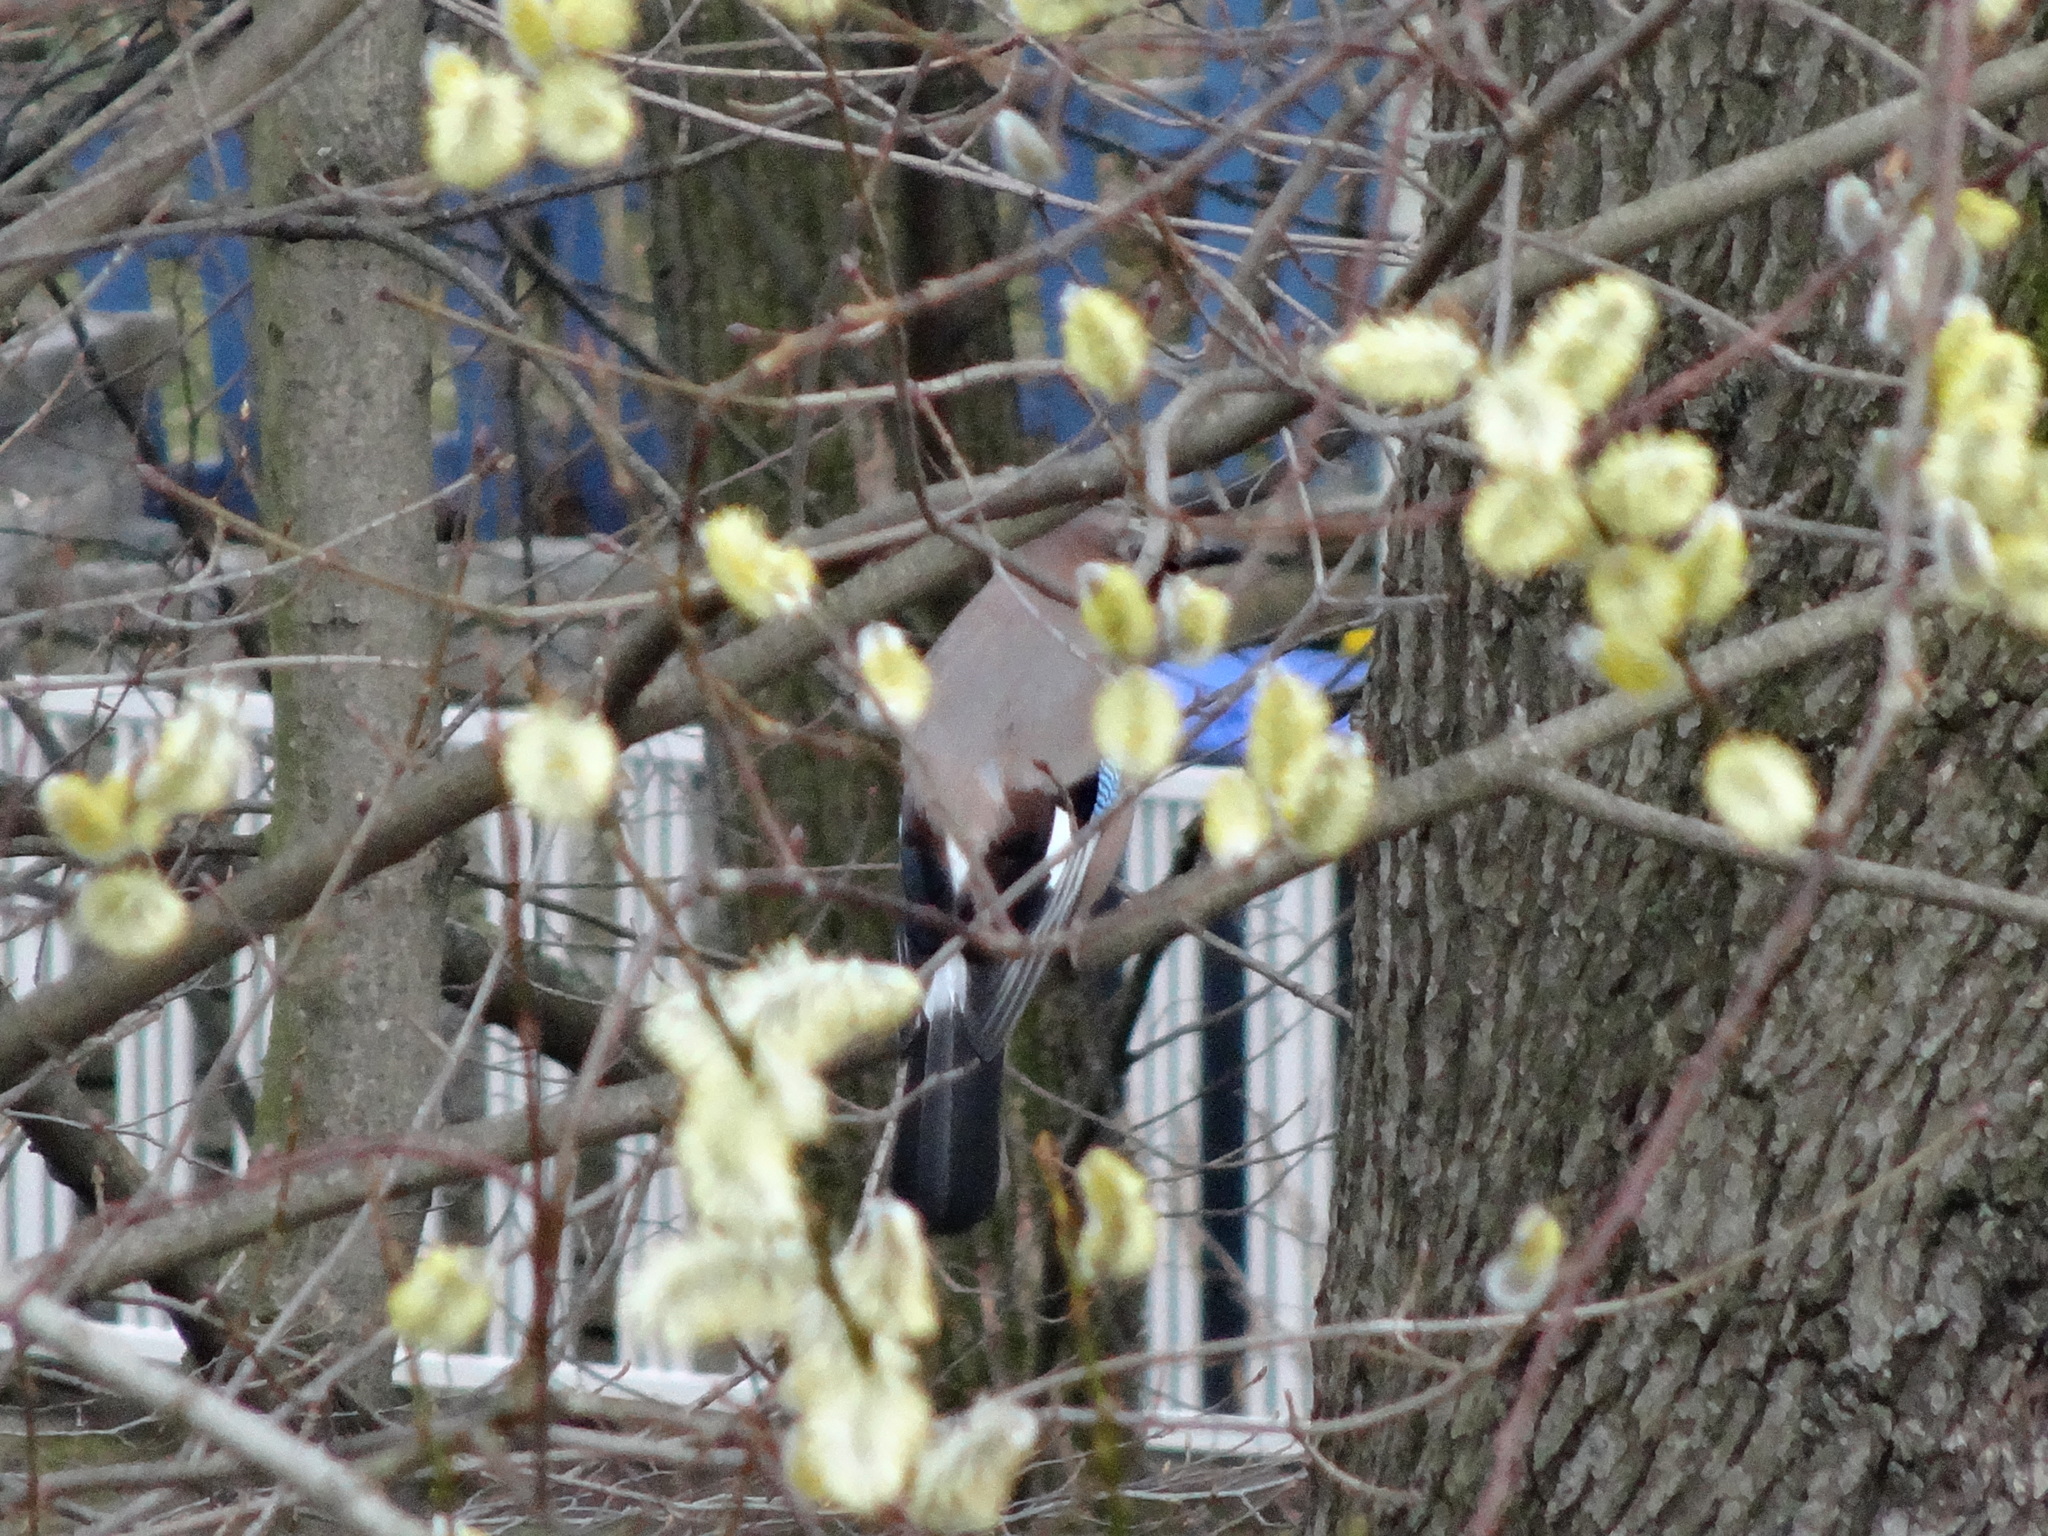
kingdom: Animalia
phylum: Chordata
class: Aves
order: Passeriformes
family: Corvidae
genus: Garrulus
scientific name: Garrulus glandarius
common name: Eurasian jay
